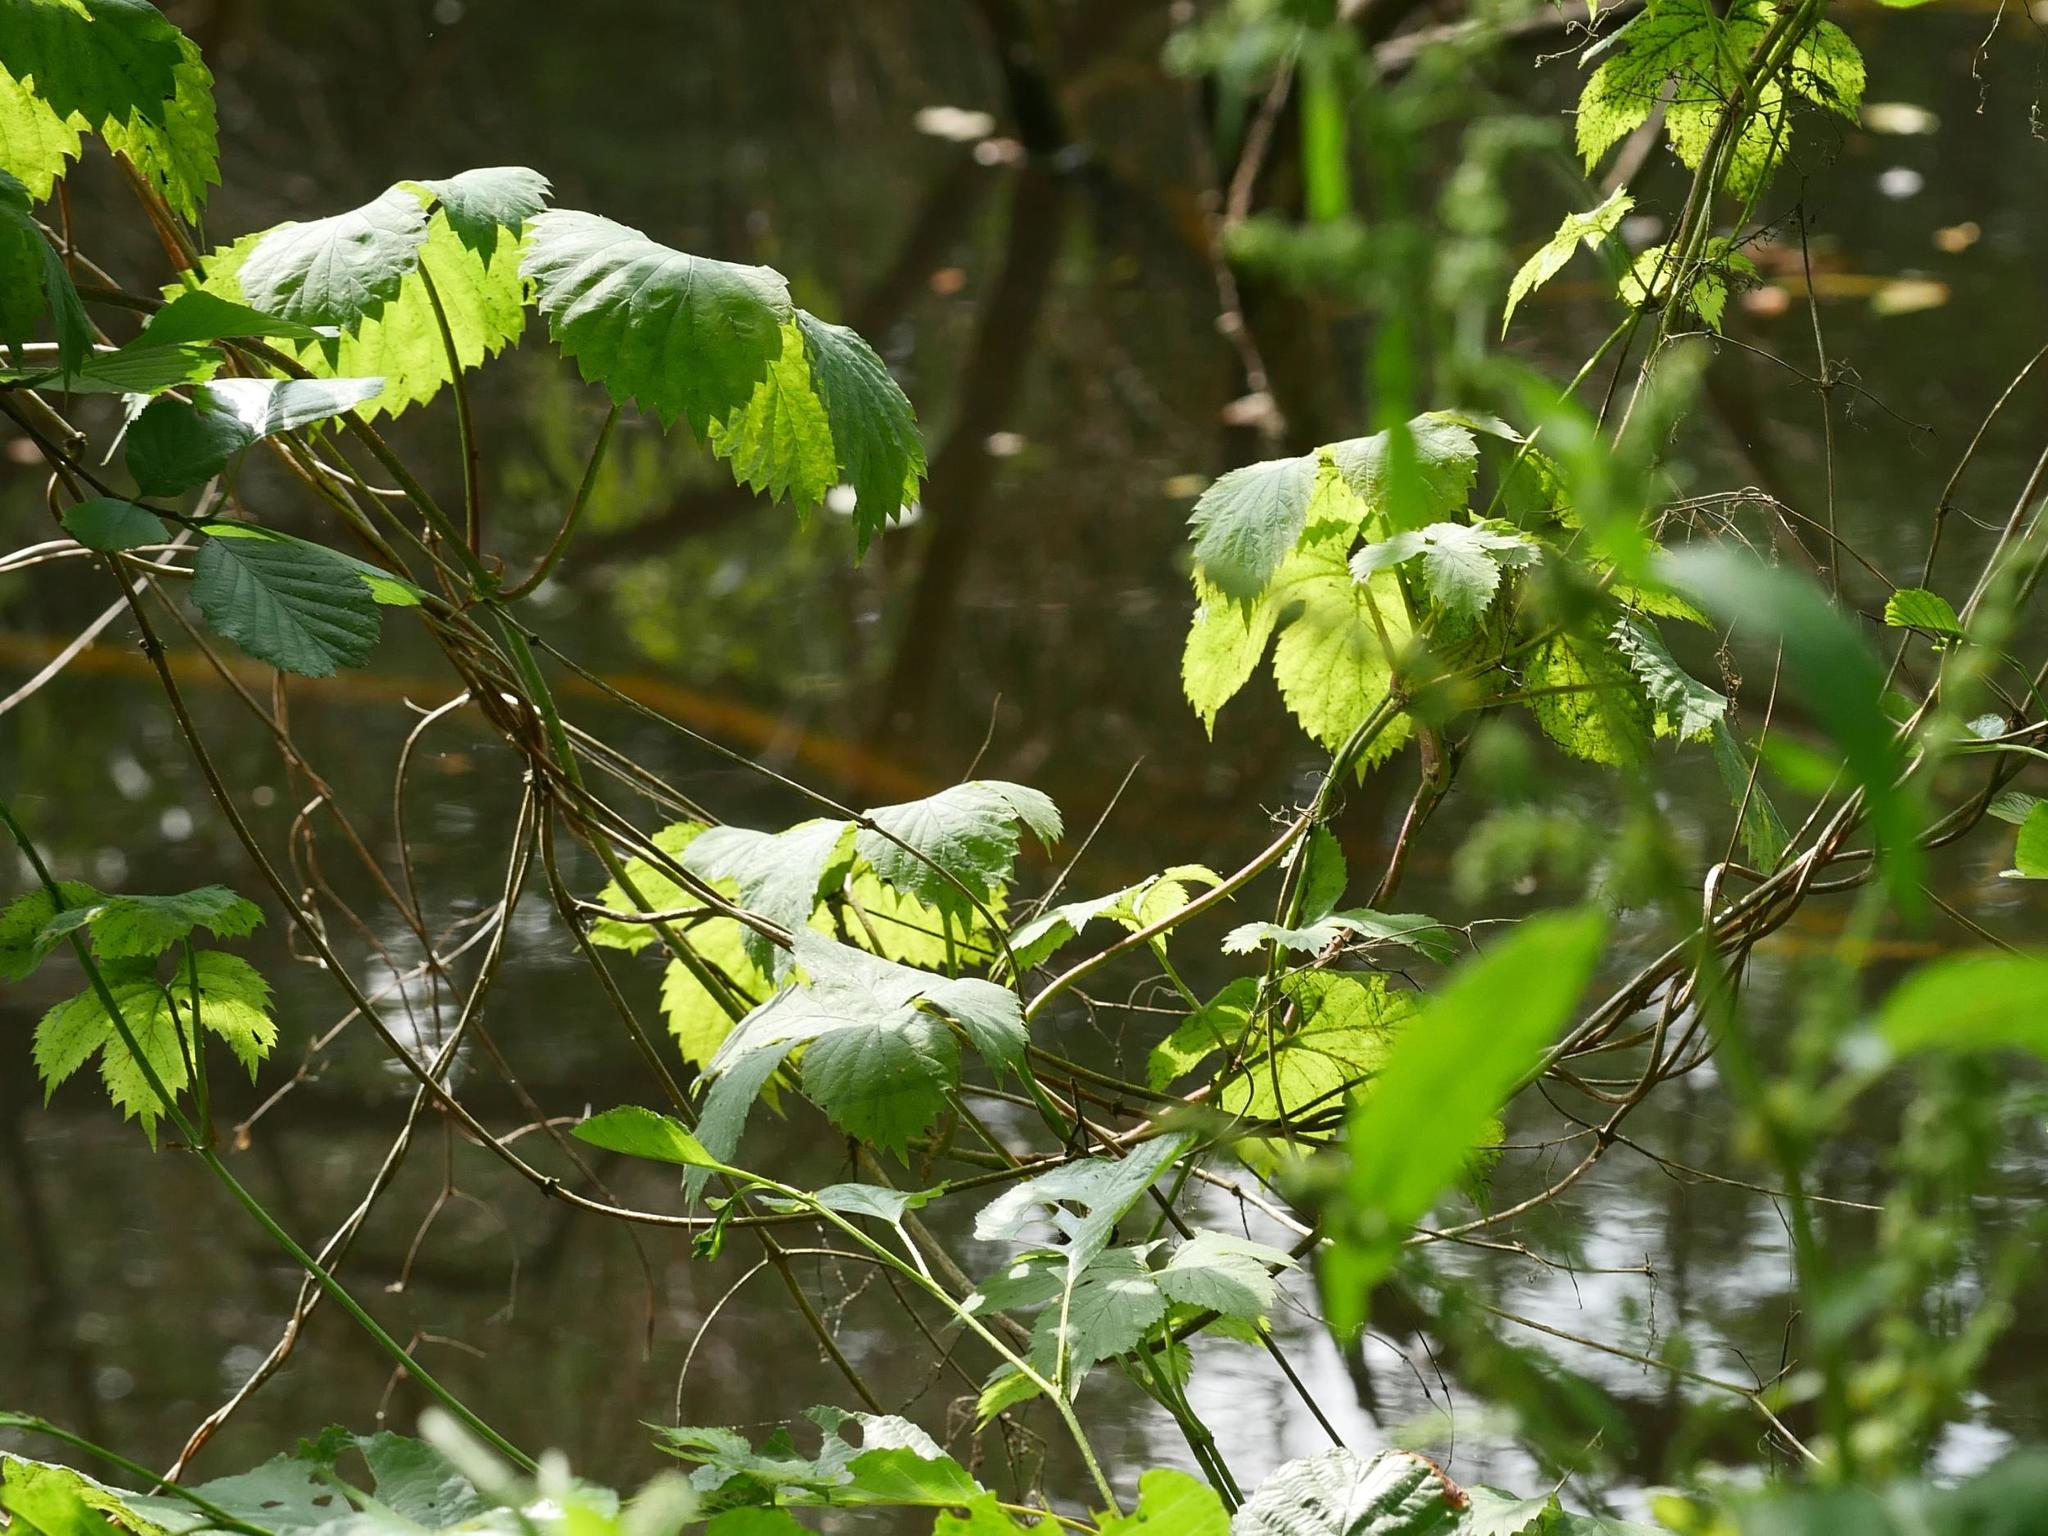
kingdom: Plantae
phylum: Tracheophyta
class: Magnoliopsida
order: Rosales
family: Cannabaceae
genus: Humulus
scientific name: Humulus lupulus
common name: Hop
